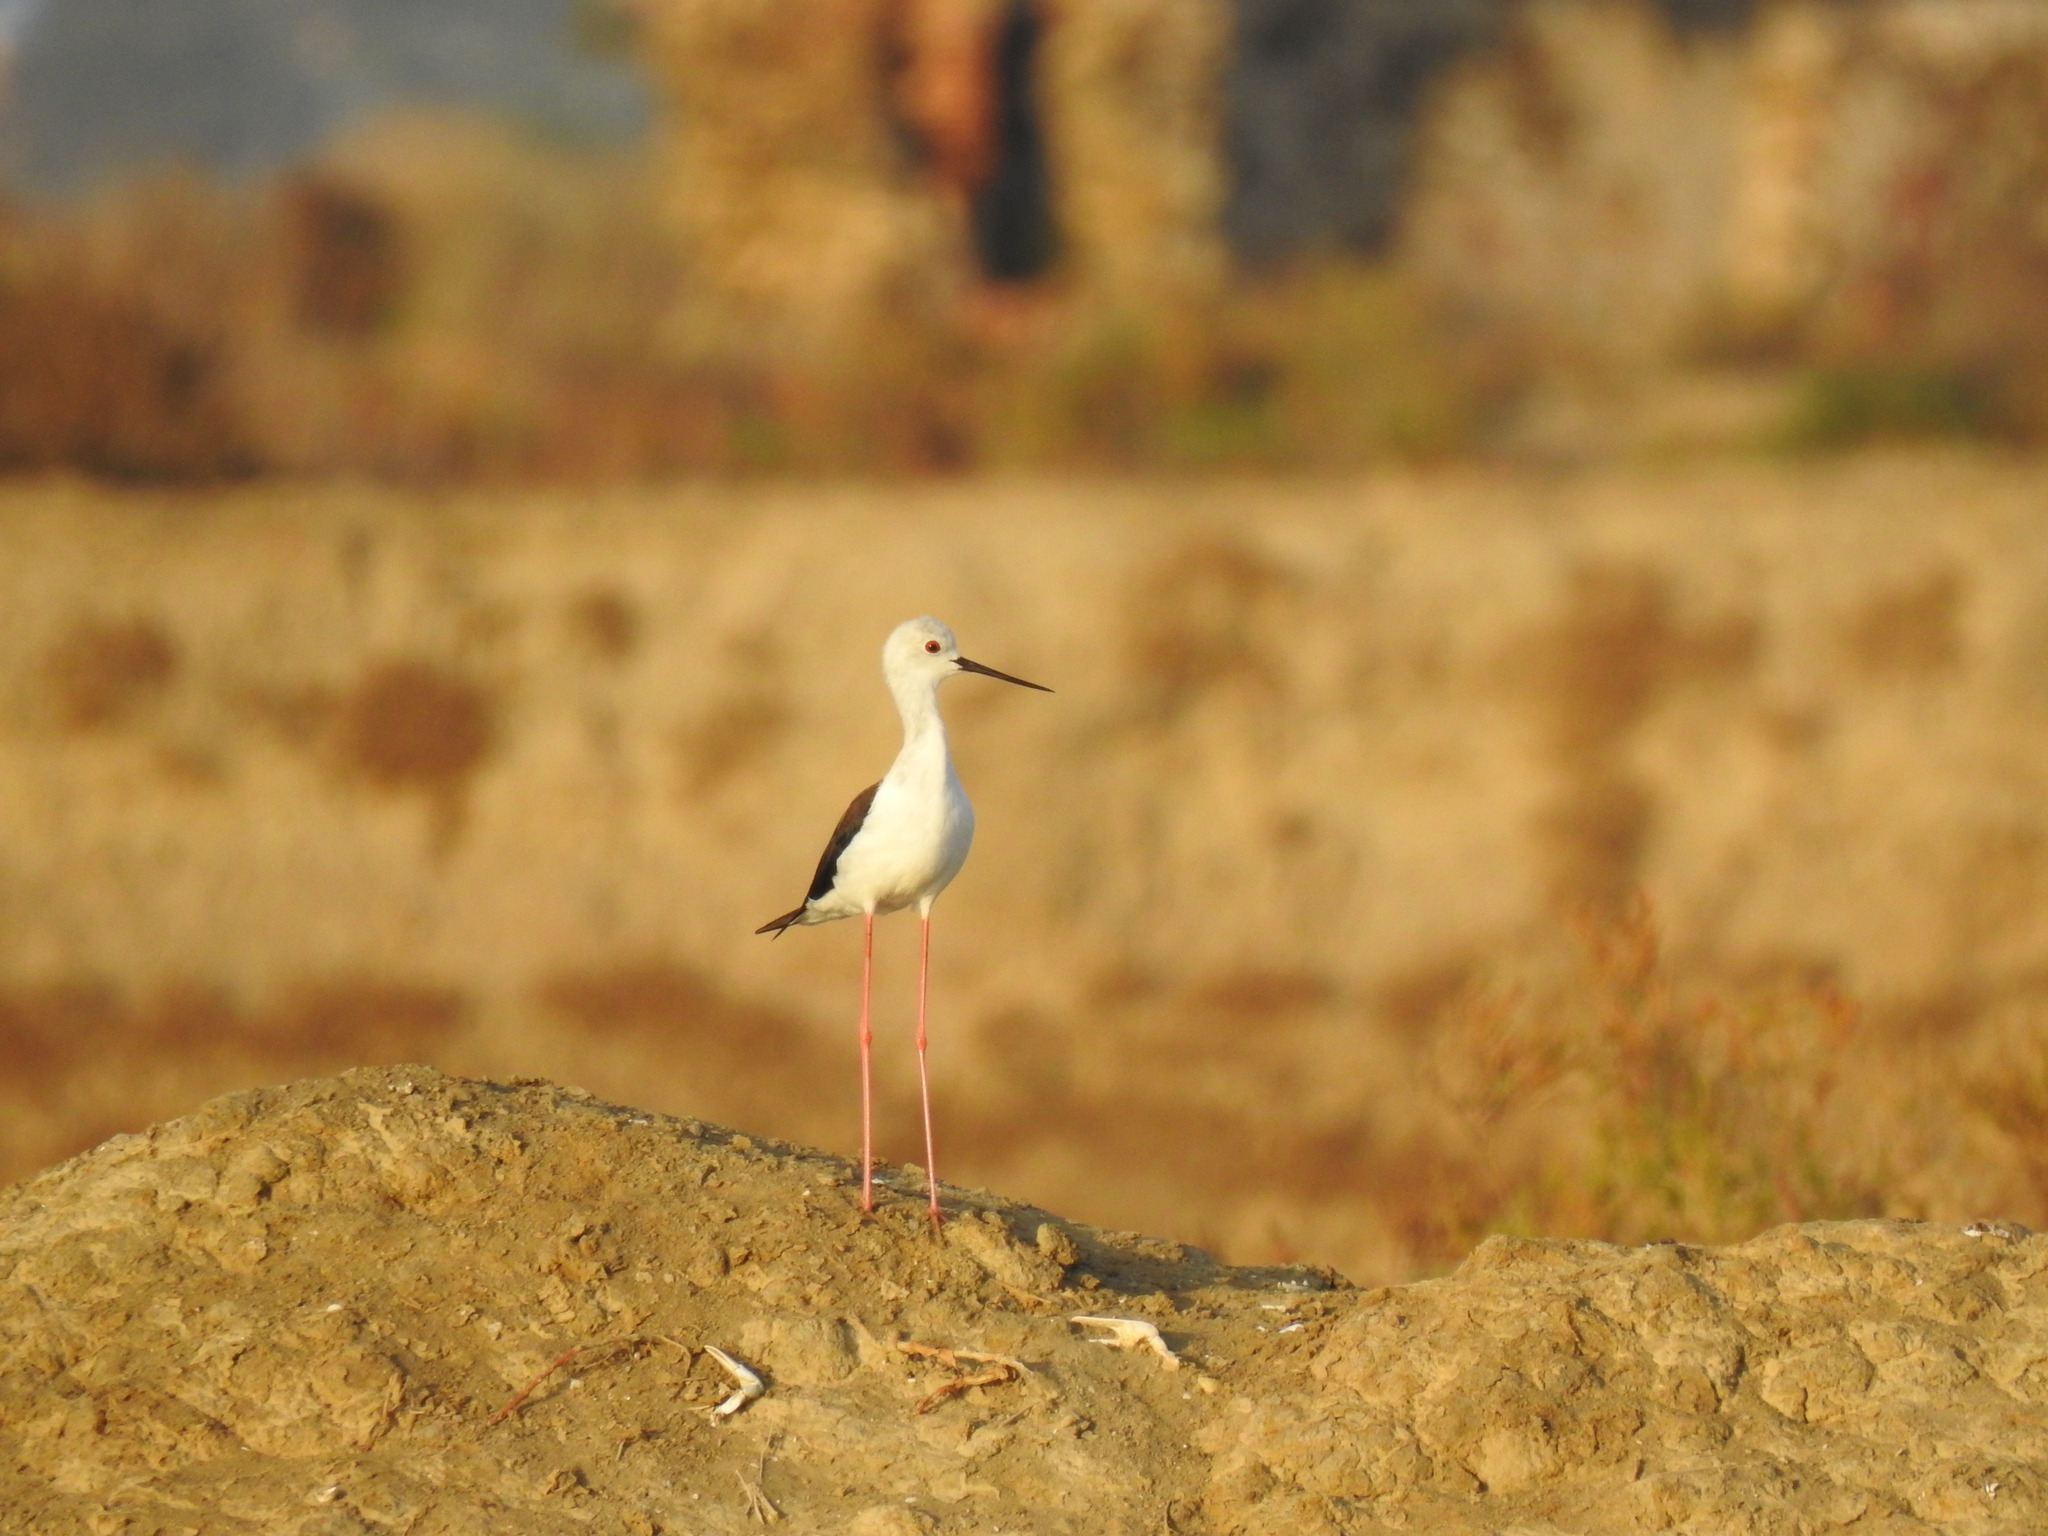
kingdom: Animalia
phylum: Chordata
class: Aves
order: Charadriiformes
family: Recurvirostridae
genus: Himantopus
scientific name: Himantopus himantopus
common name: Black-winged stilt
